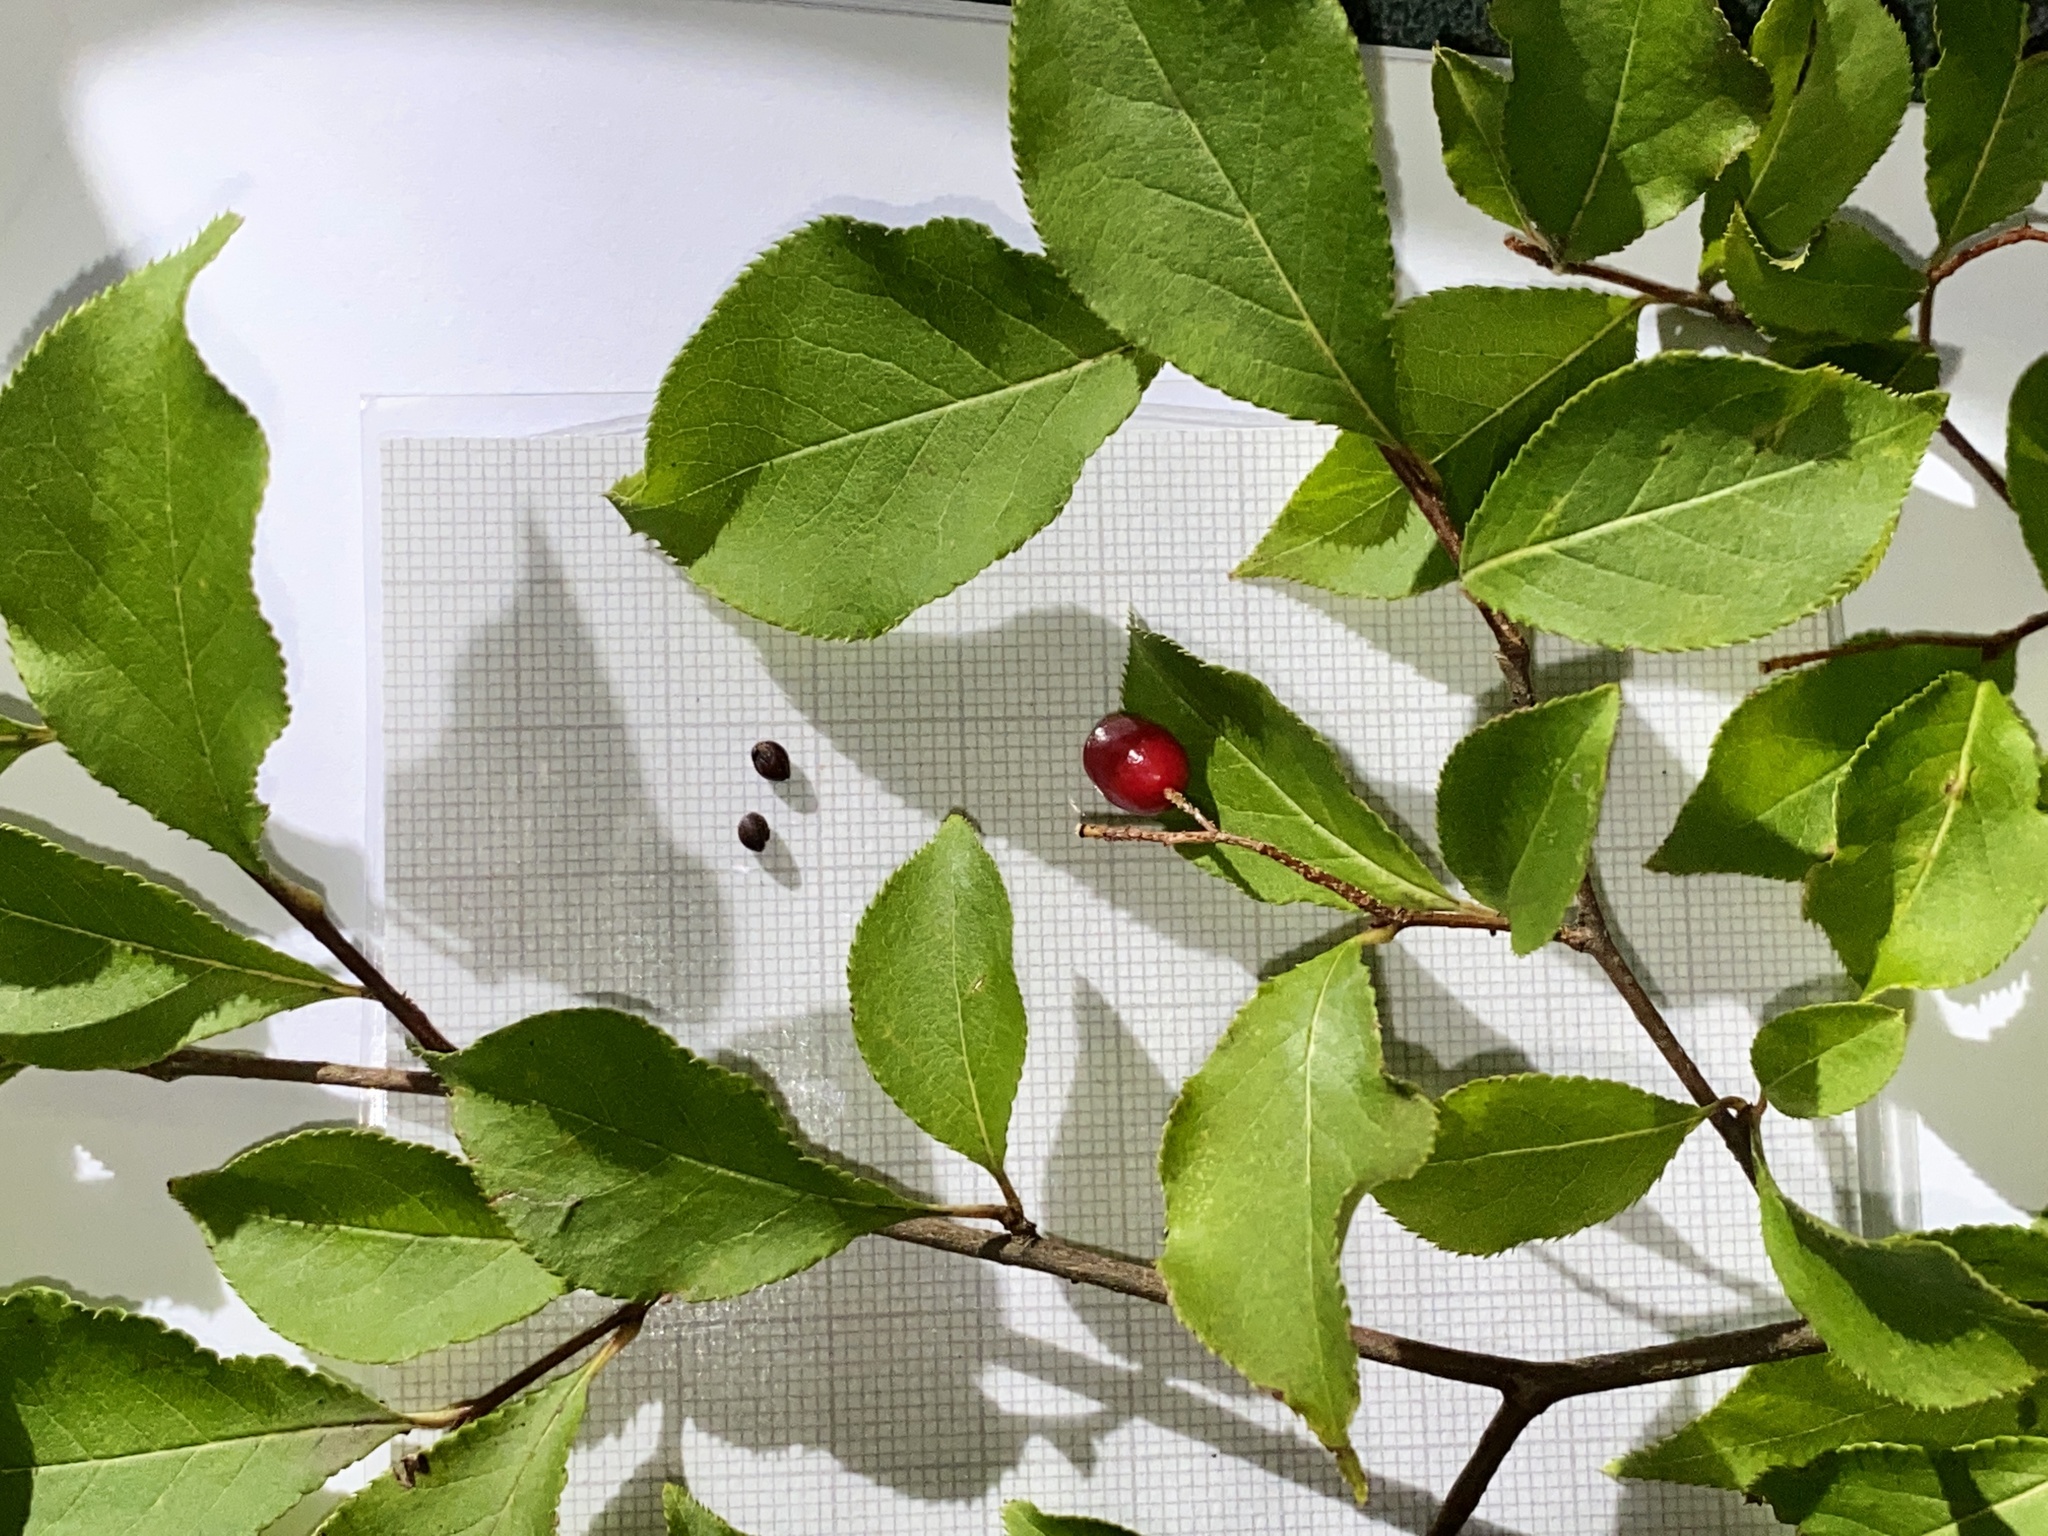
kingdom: Plantae
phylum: Tracheophyta
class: Magnoliopsida
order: Rosales
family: Rosaceae
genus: Pourthiaea
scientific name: Pourthiaea villosa
